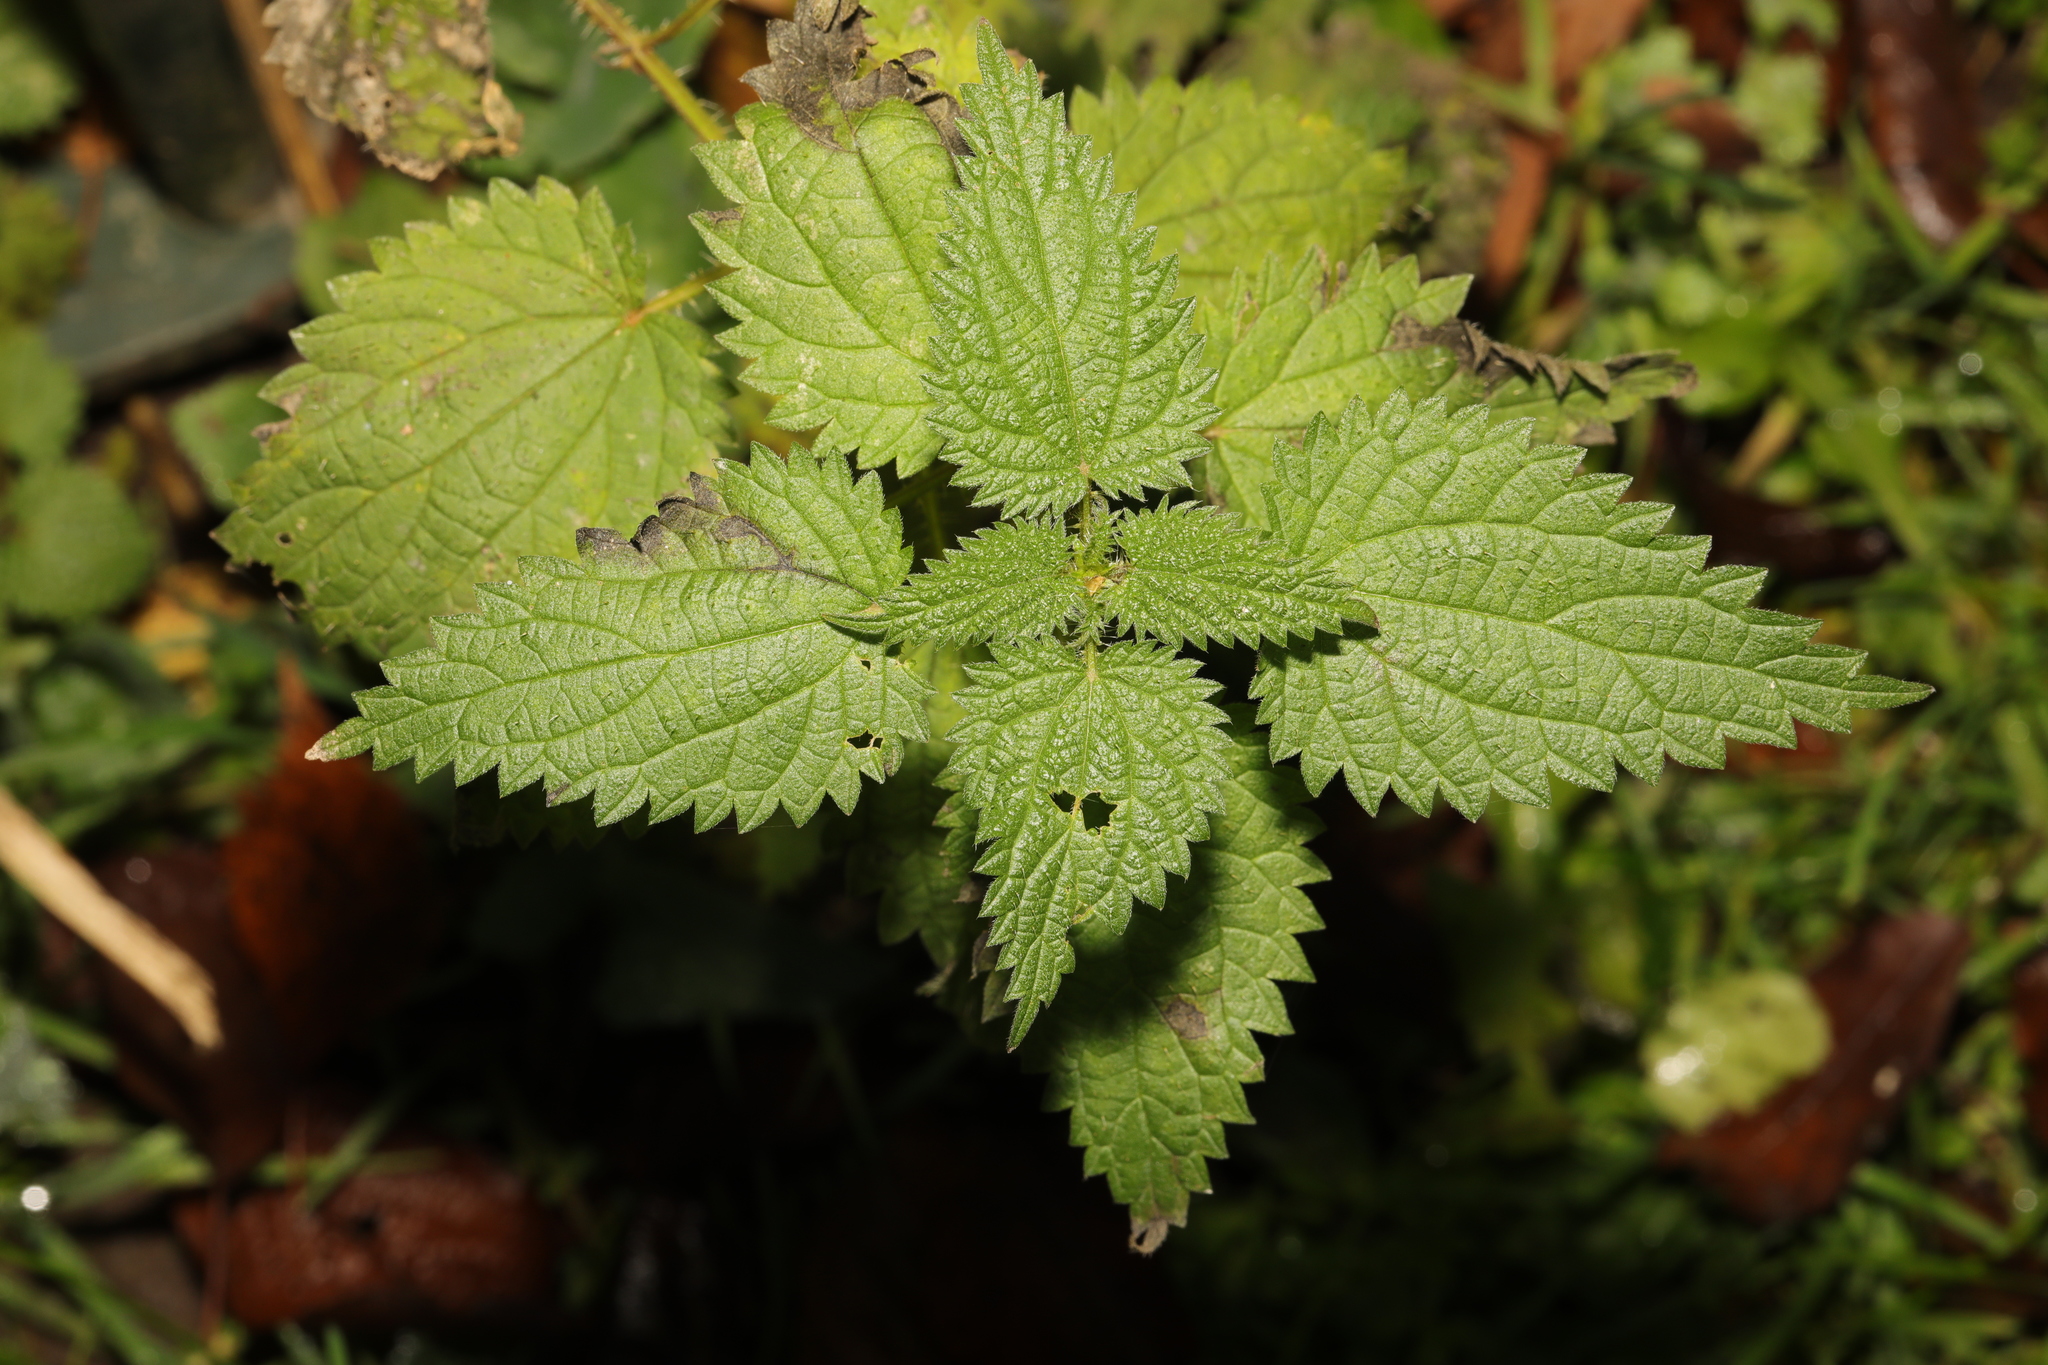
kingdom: Plantae
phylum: Tracheophyta
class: Magnoliopsida
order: Rosales
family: Urticaceae
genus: Urtica
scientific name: Urtica dioica
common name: Common nettle
